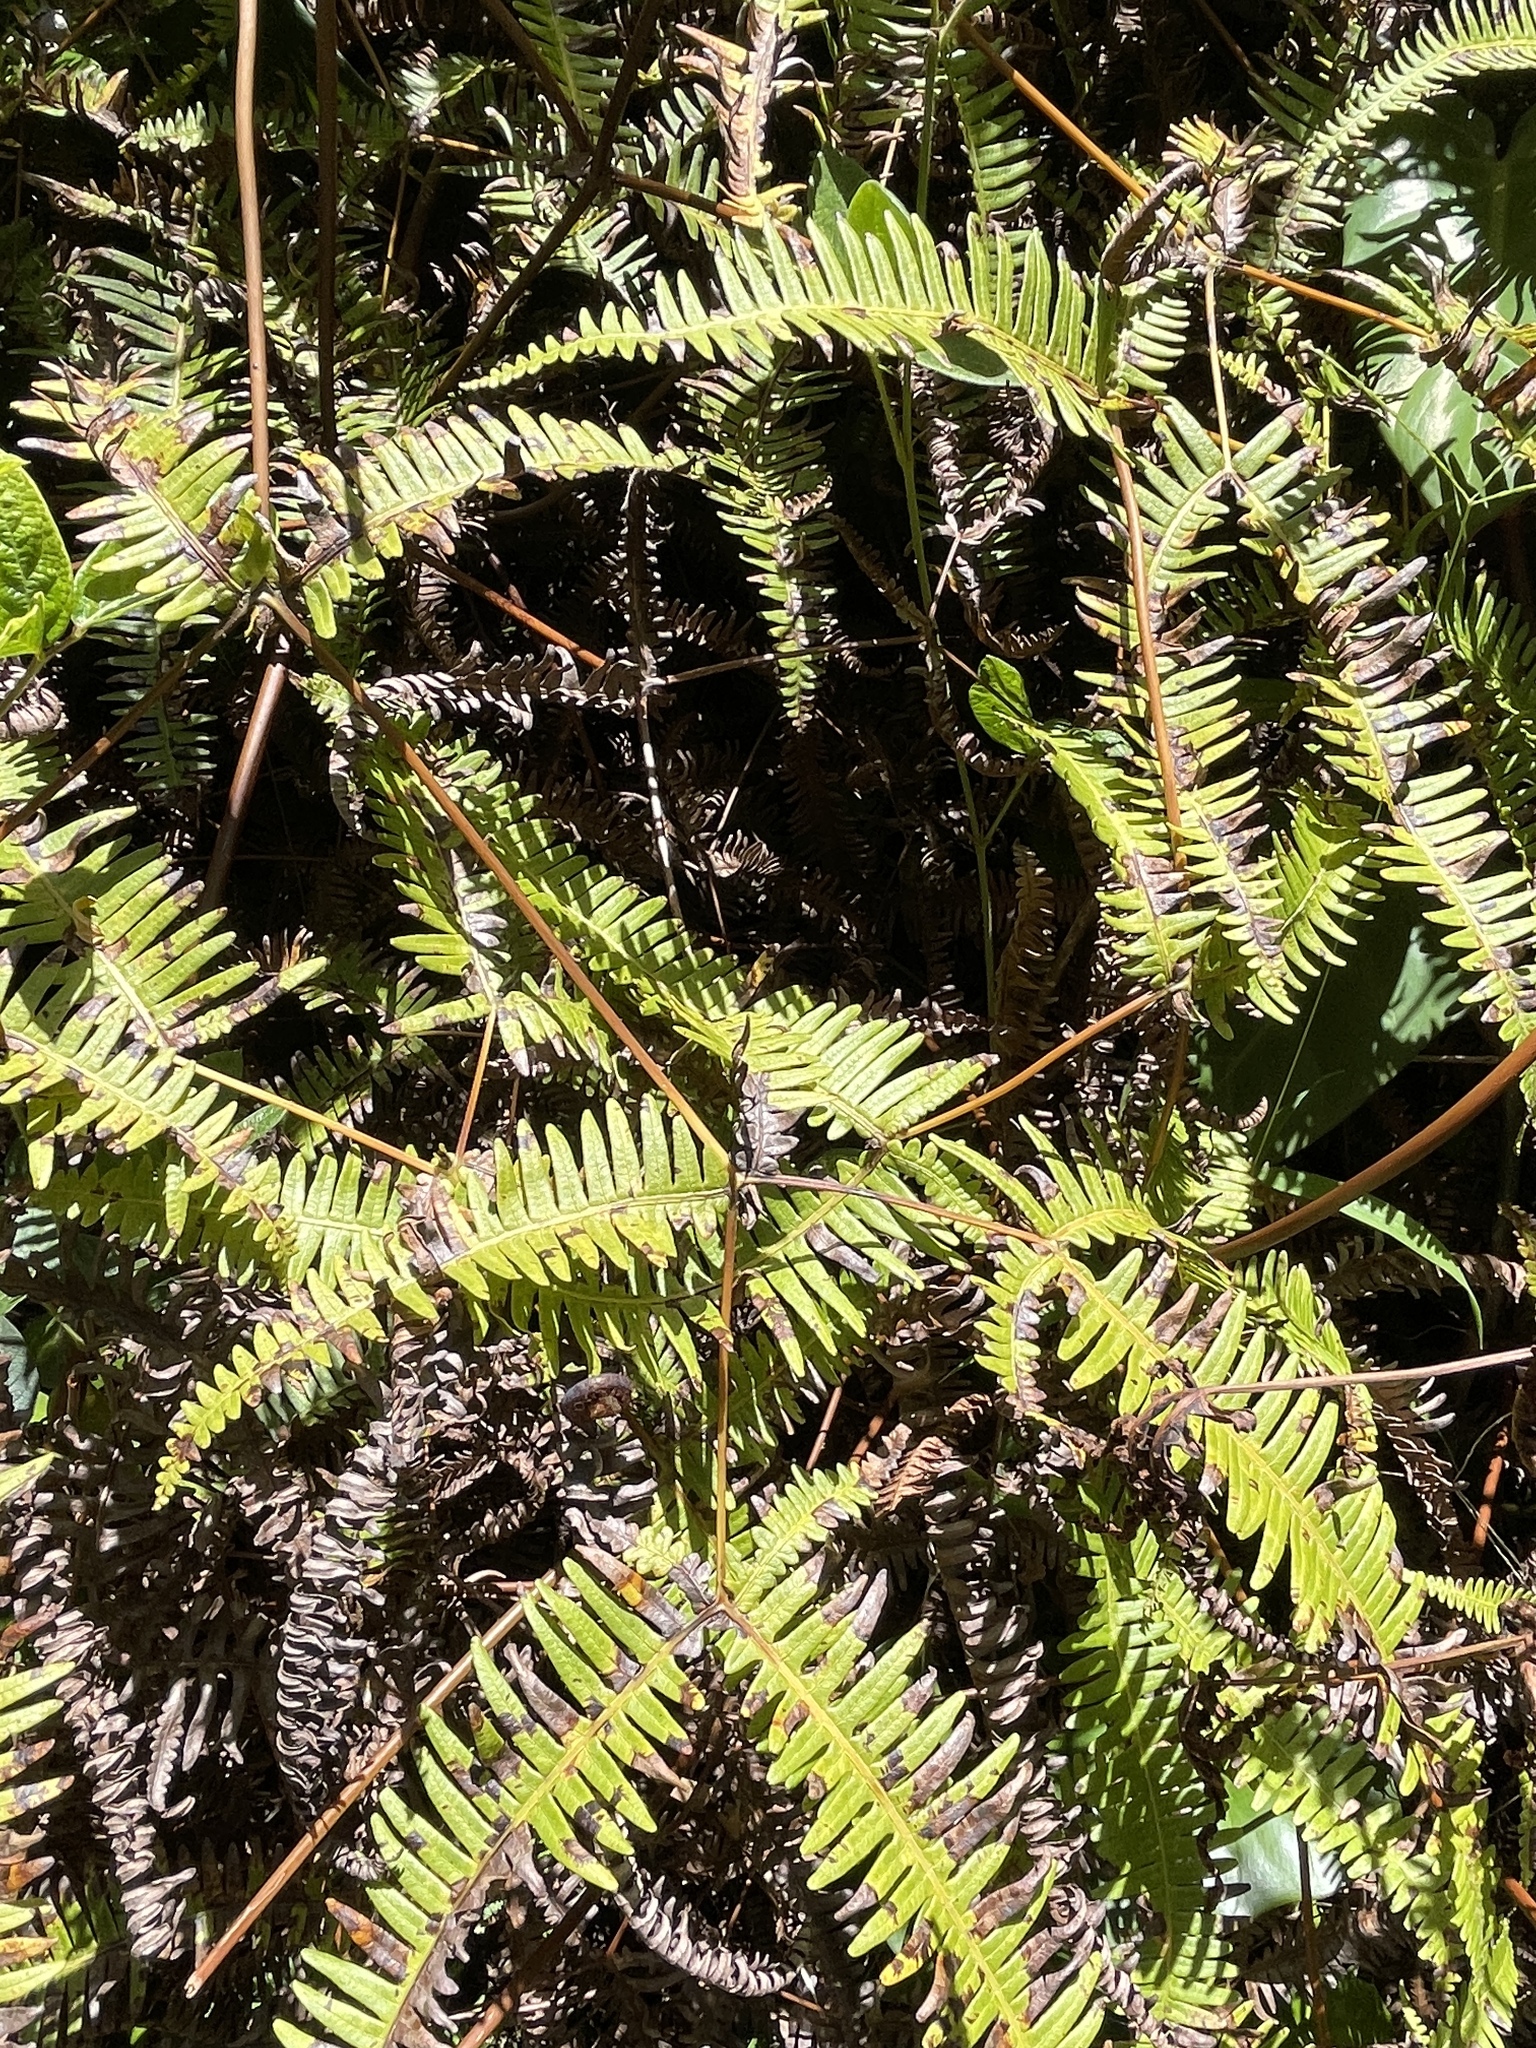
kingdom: Plantae
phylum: Tracheophyta
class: Polypodiopsida
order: Gleicheniales
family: Gleicheniaceae
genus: Dicranopteris
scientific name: Dicranopteris linearis
